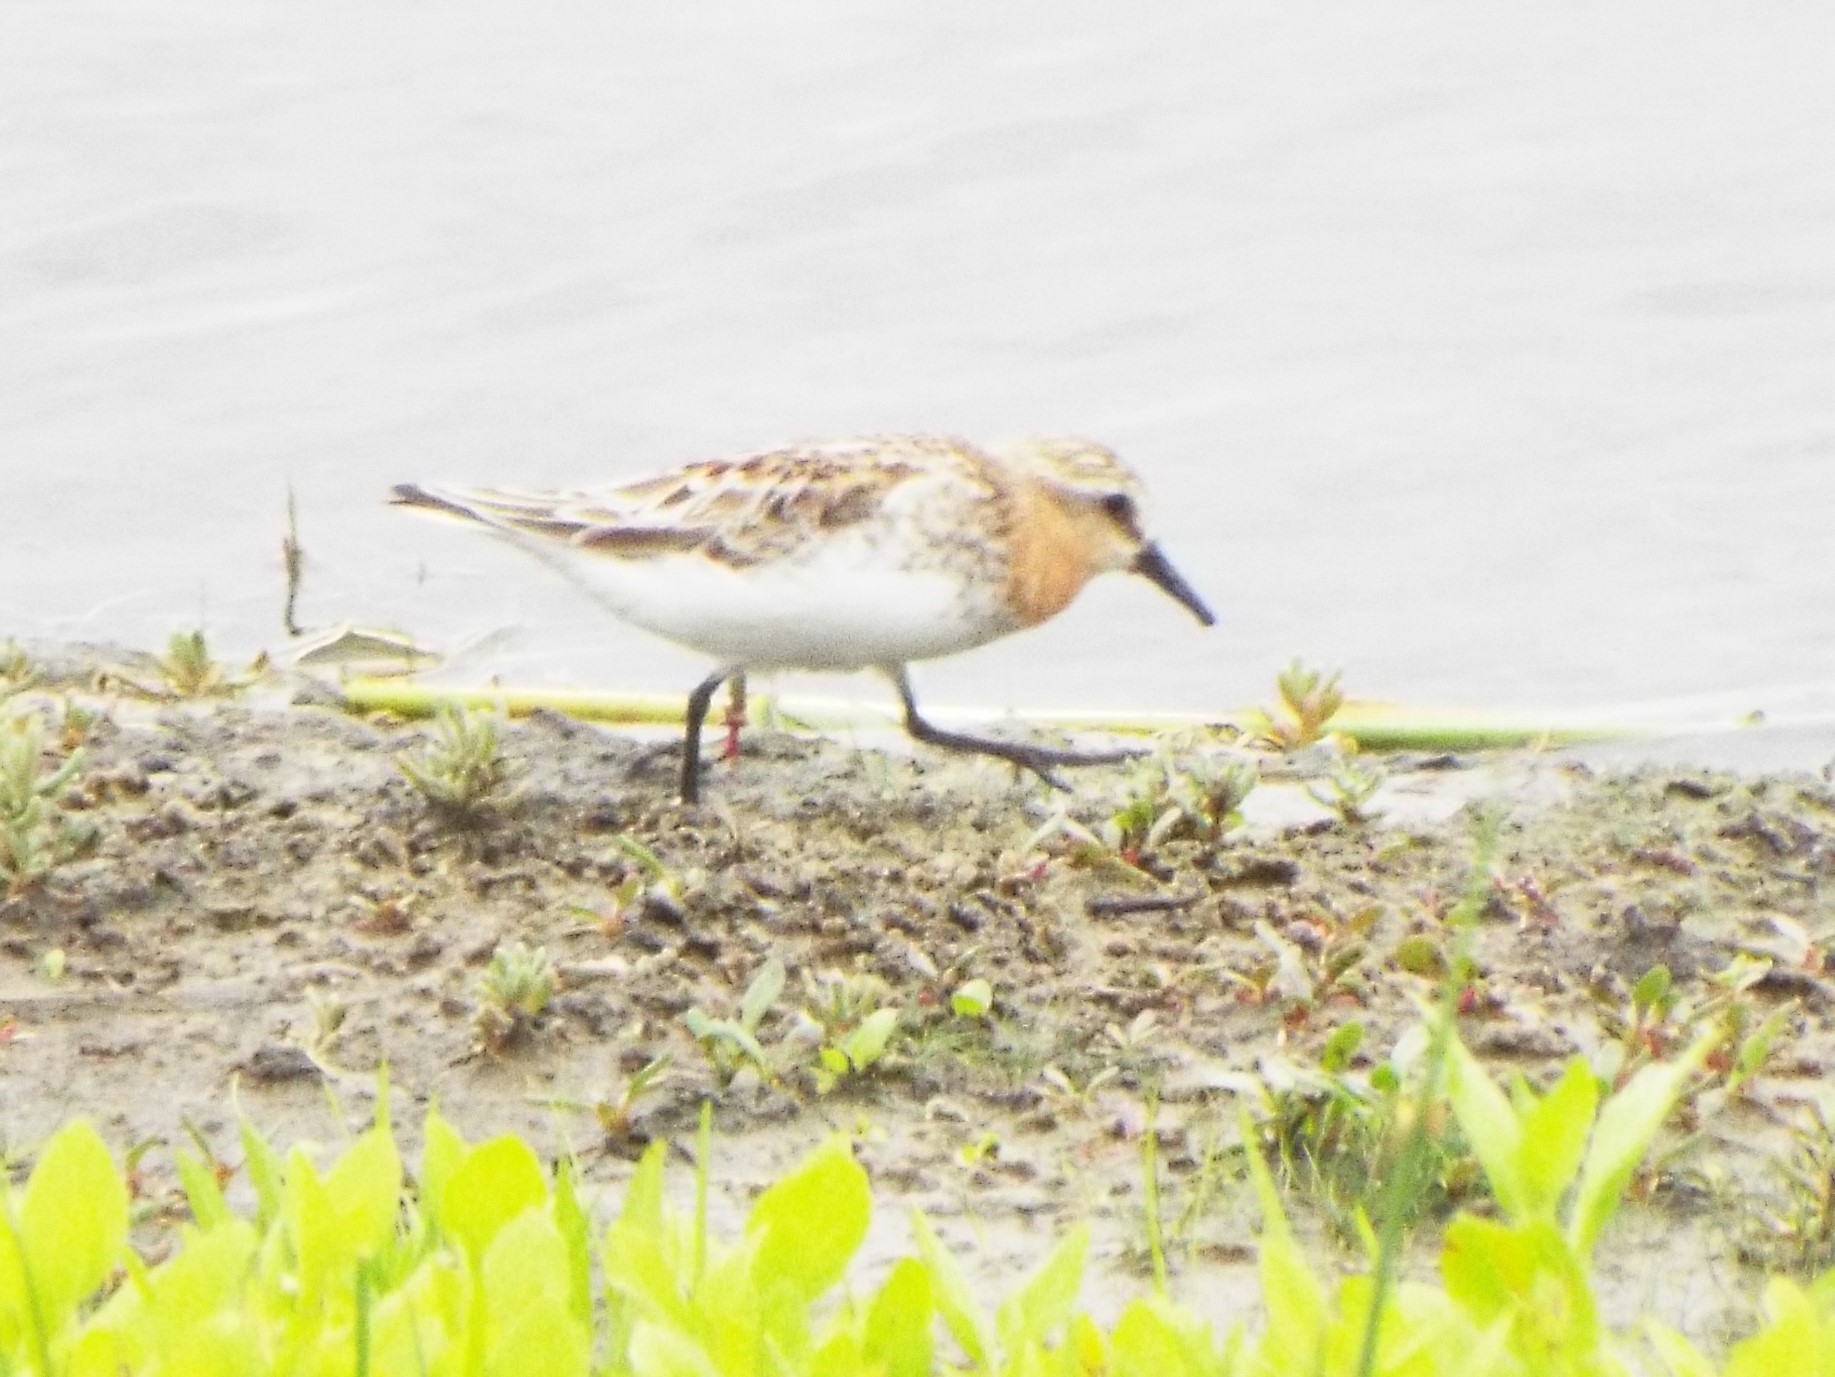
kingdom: Animalia
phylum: Chordata
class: Aves
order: Charadriiformes
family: Scolopacidae
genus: Calidris
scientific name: Calidris ruficollis
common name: Red-necked stint
